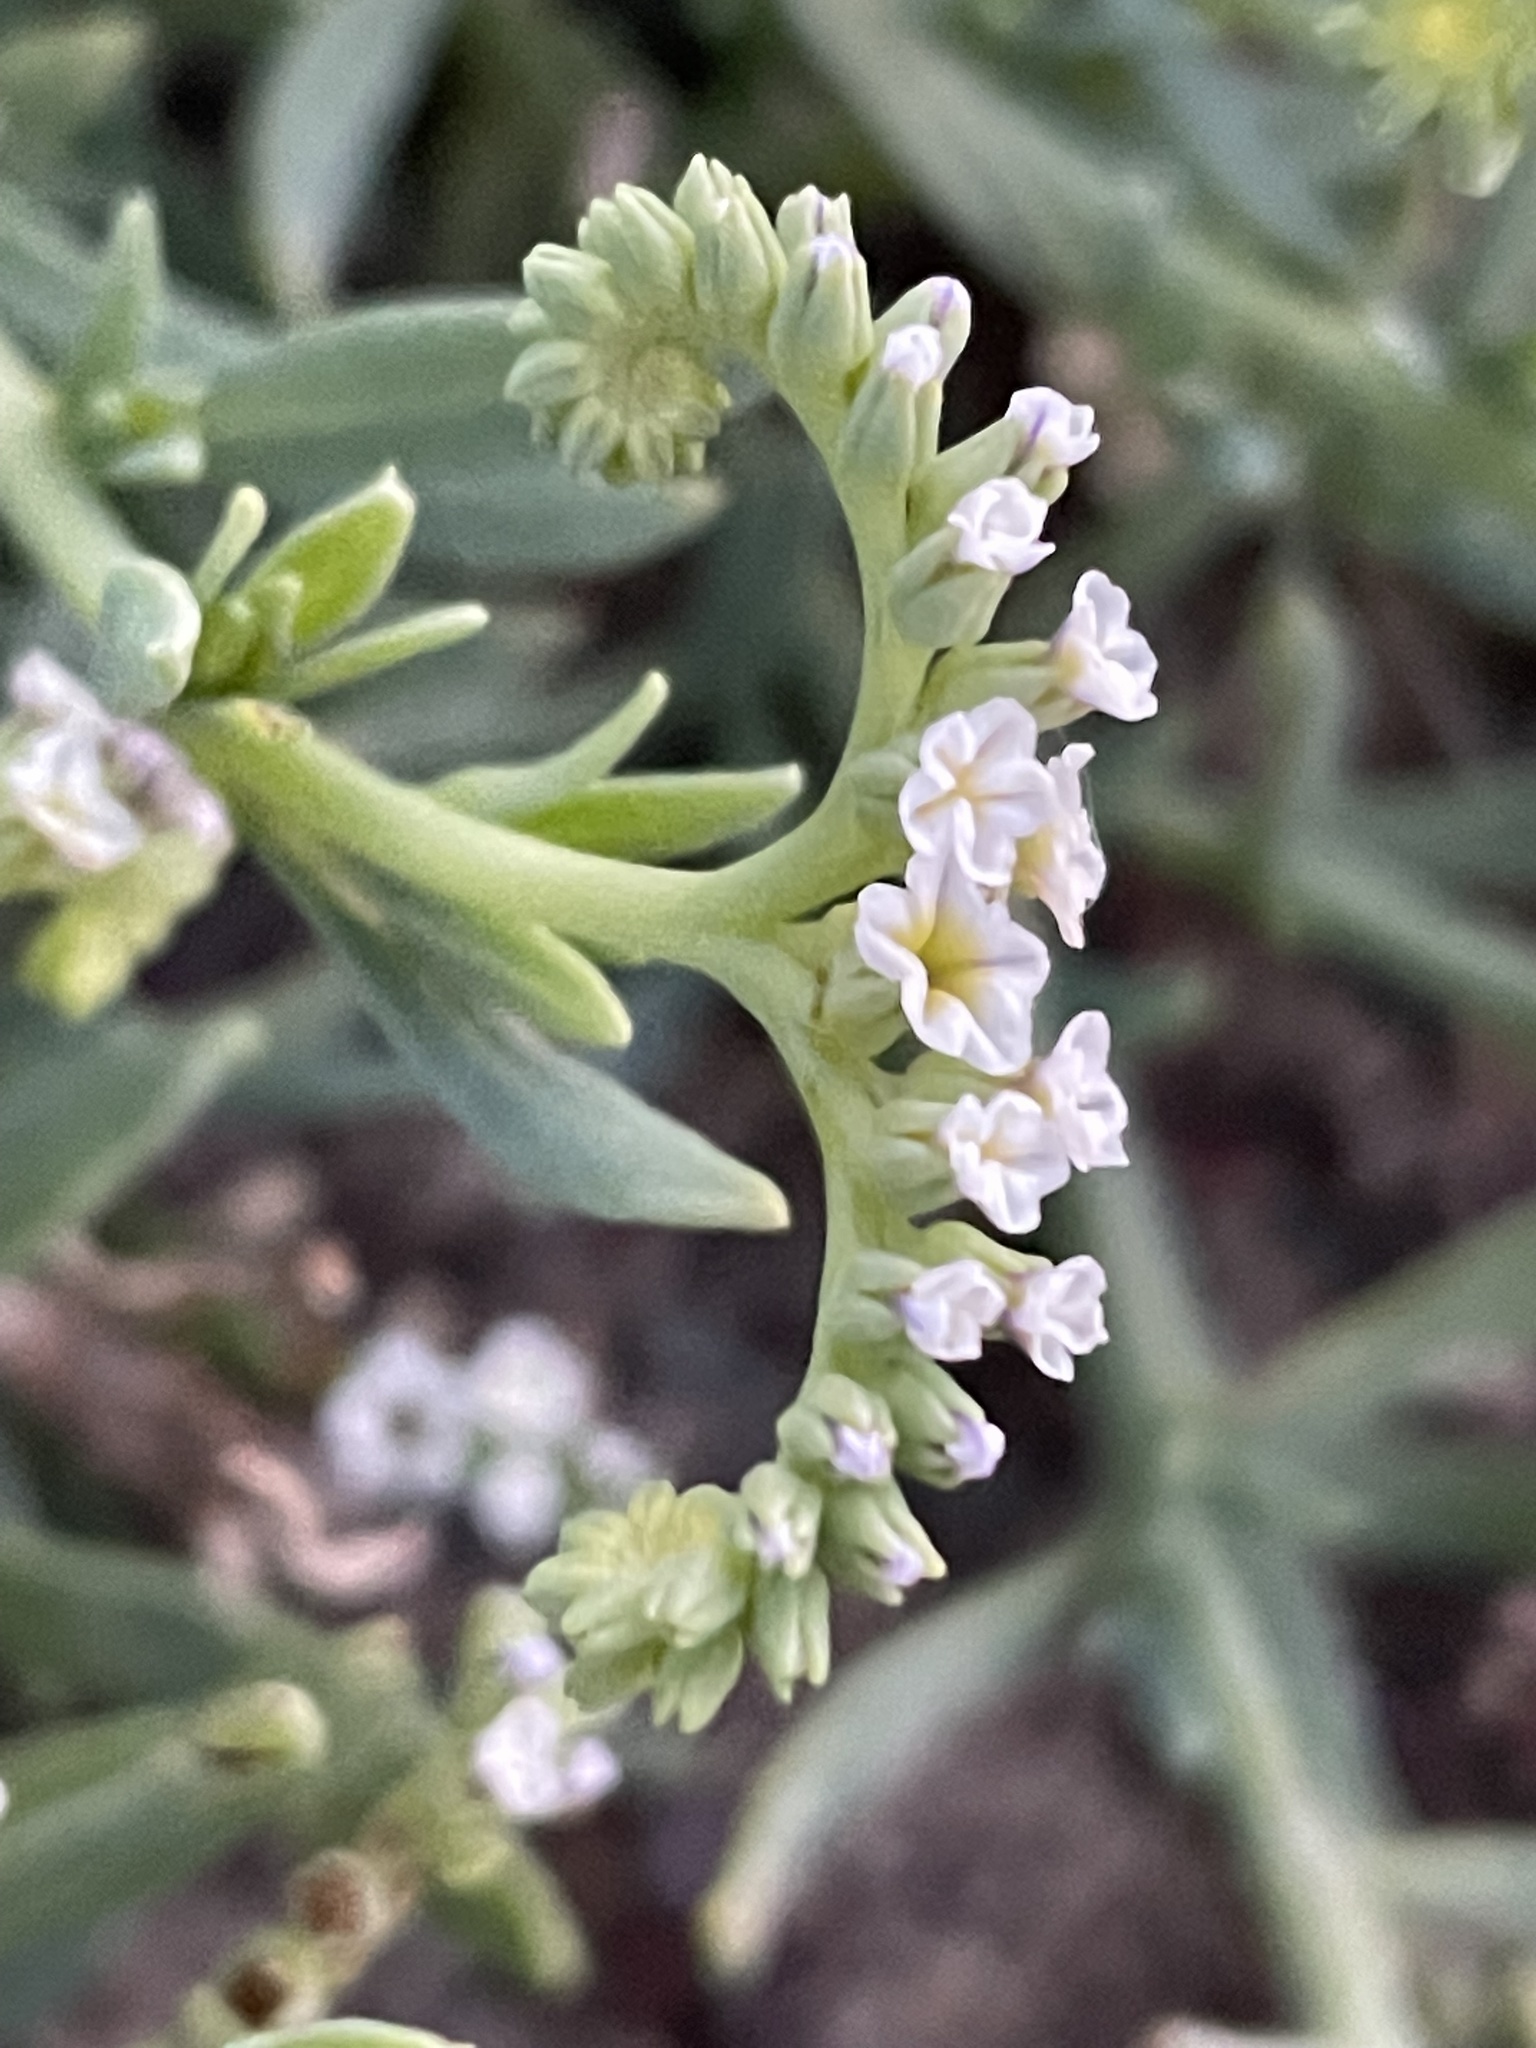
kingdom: Plantae
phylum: Tracheophyta
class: Magnoliopsida
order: Boraginales
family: Heliotropiaceae
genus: Heliotropium
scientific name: Heliotropium curassavicum
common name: Seaside heliotrope
